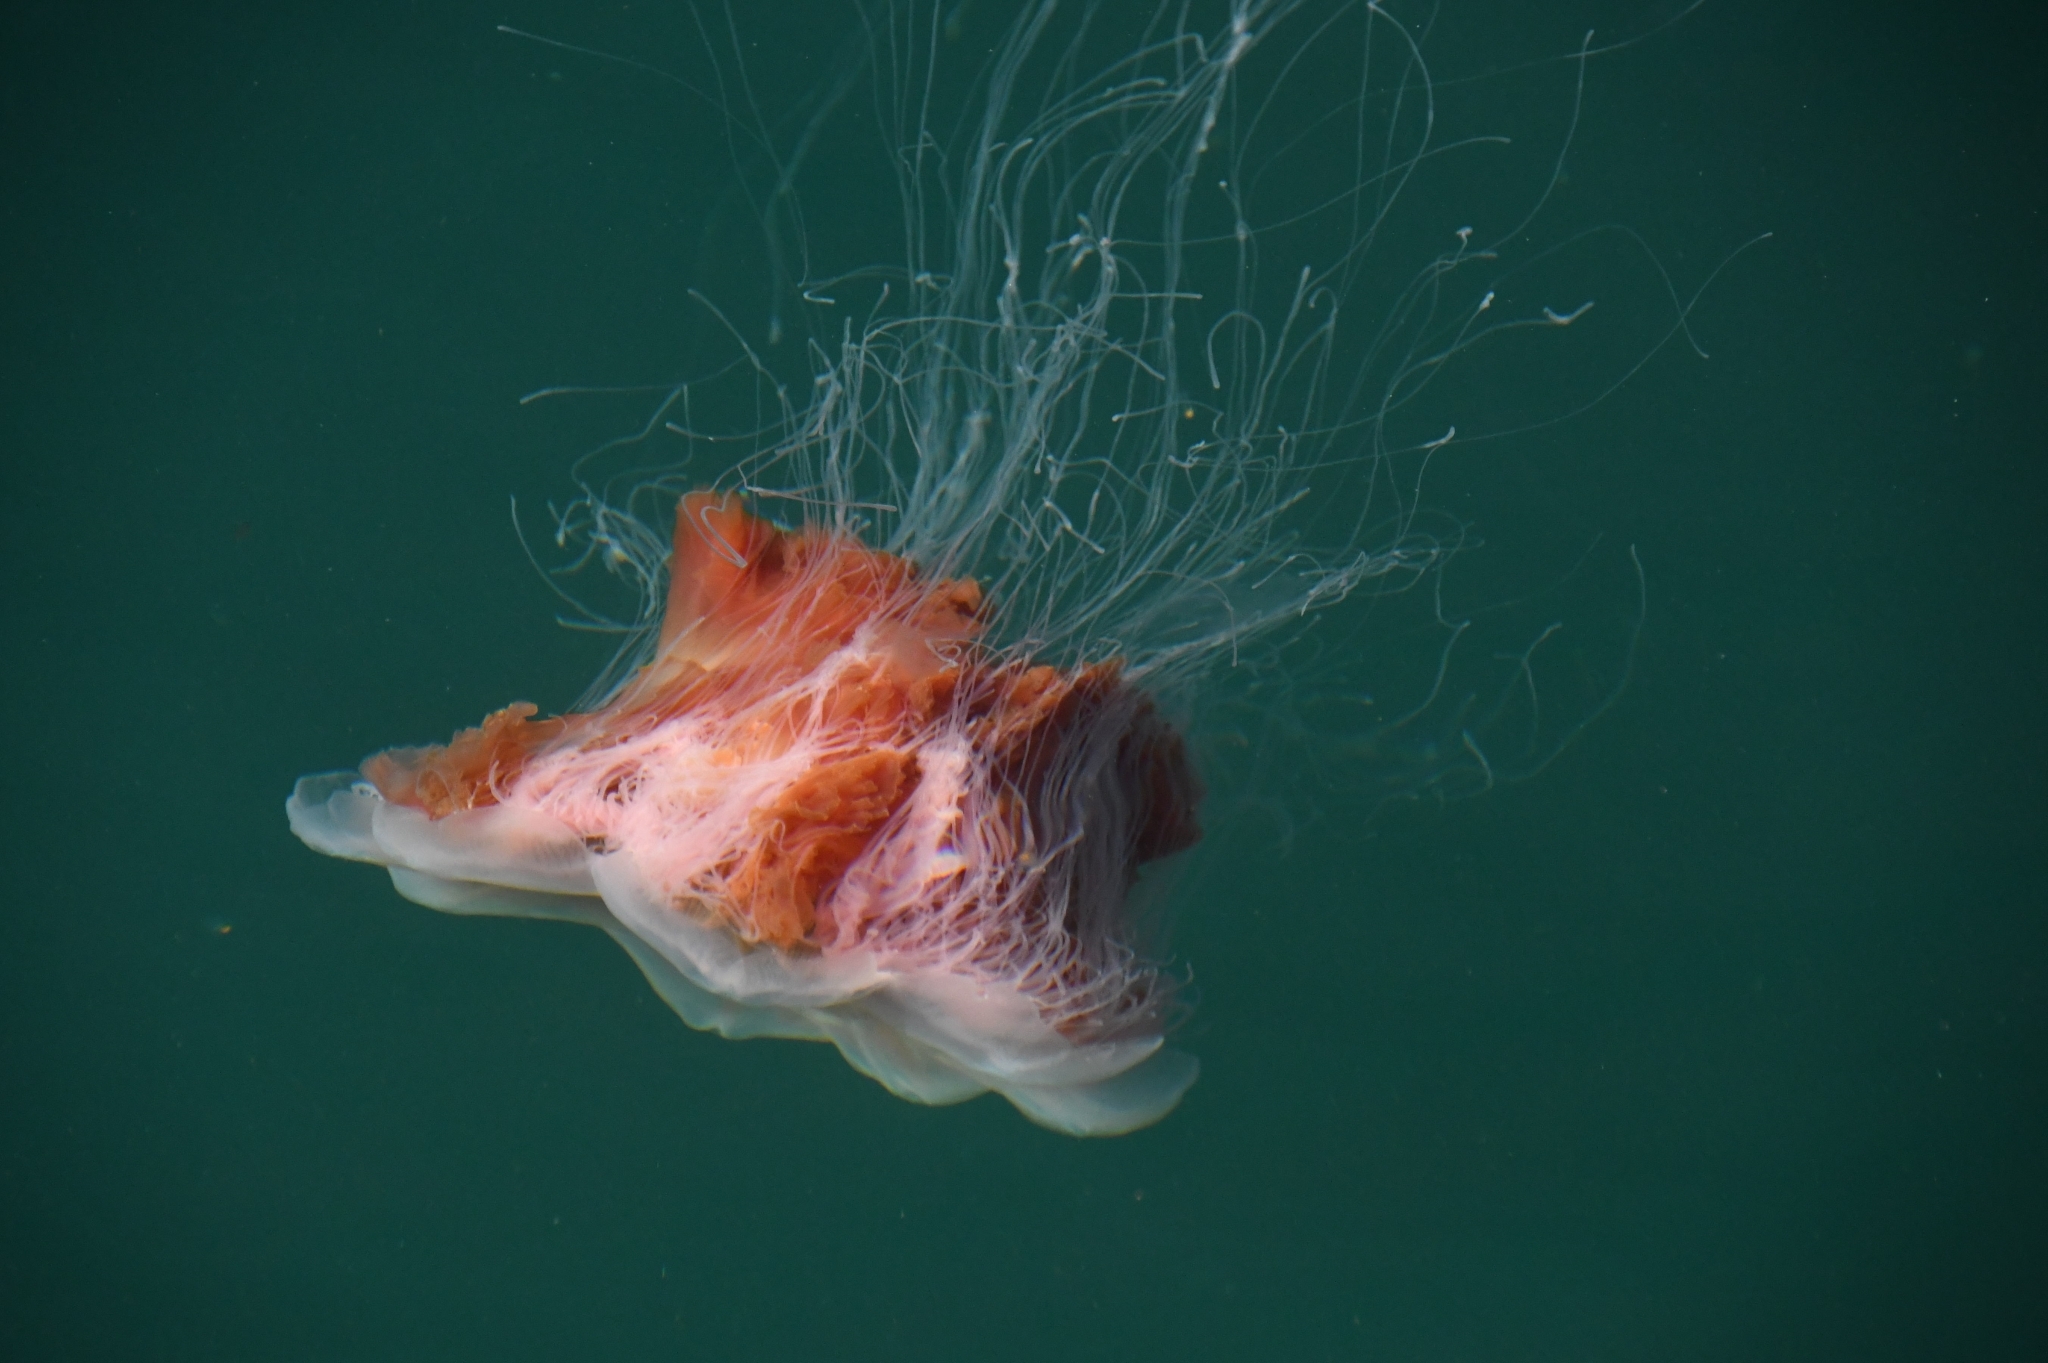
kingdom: Animalia
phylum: Cnidaria
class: Scyphozoa
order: Semaeostomeae
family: Cyaneidae
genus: Cyanea
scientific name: Cyanea capillata
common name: Lion's mane jellyfish
